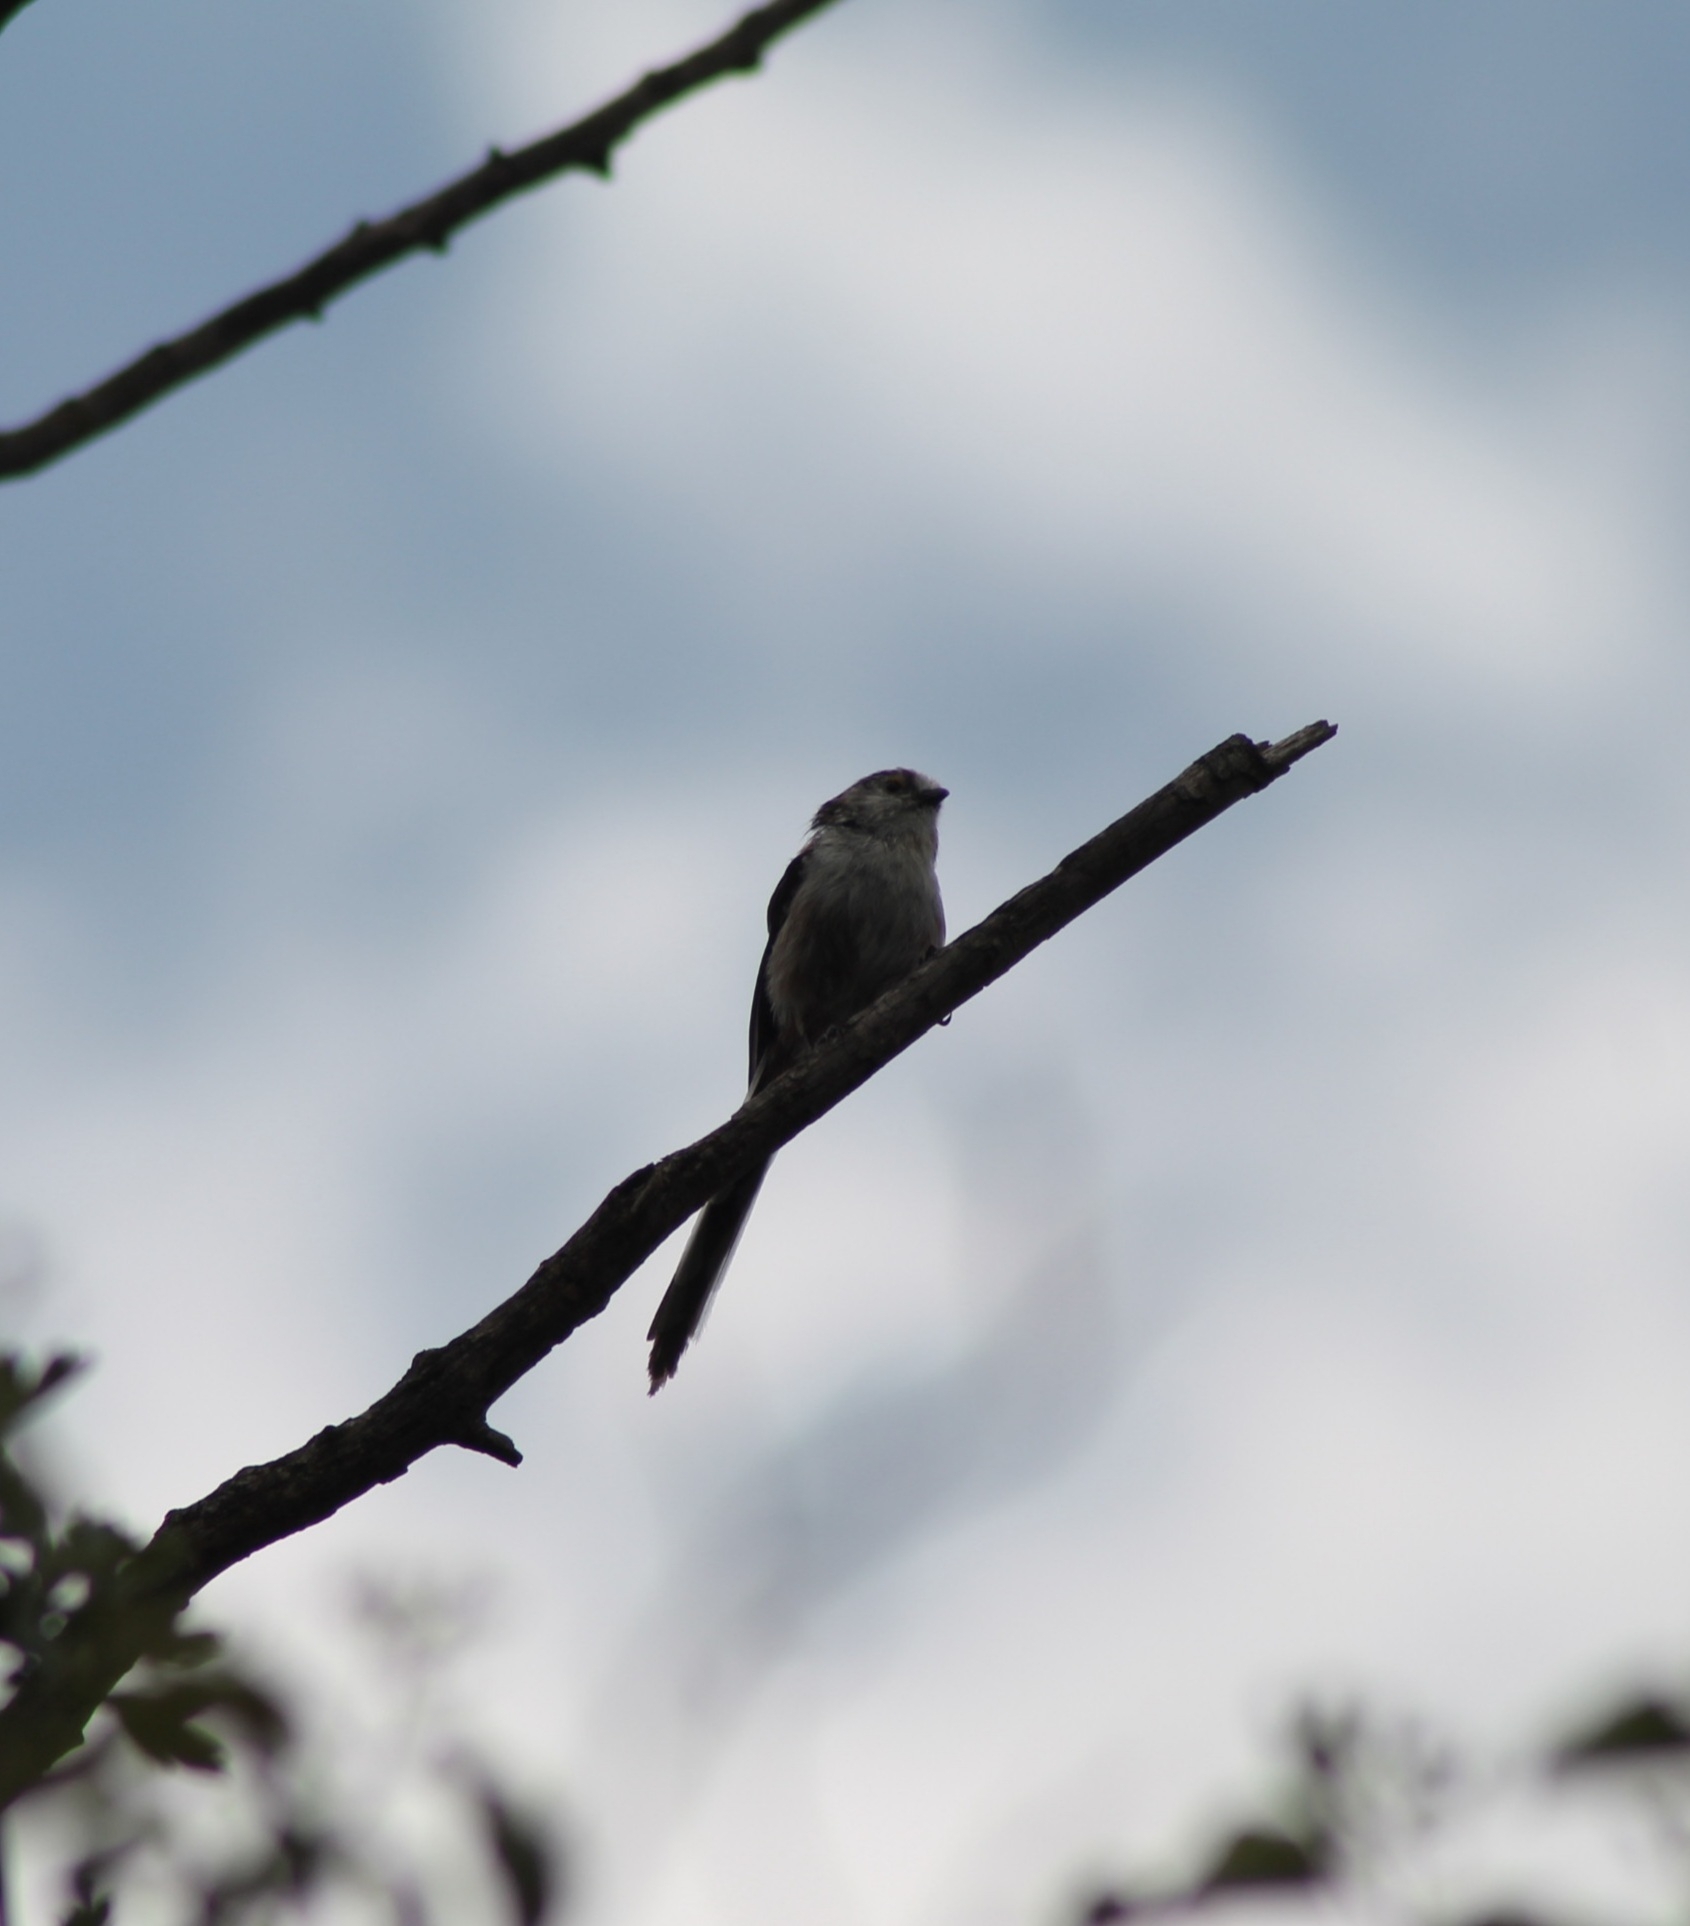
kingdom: Animalia
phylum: Chordata
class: Aves
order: Passeriformes
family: Aegithalidae
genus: Aegithalos
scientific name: Aegithalos caudatus
